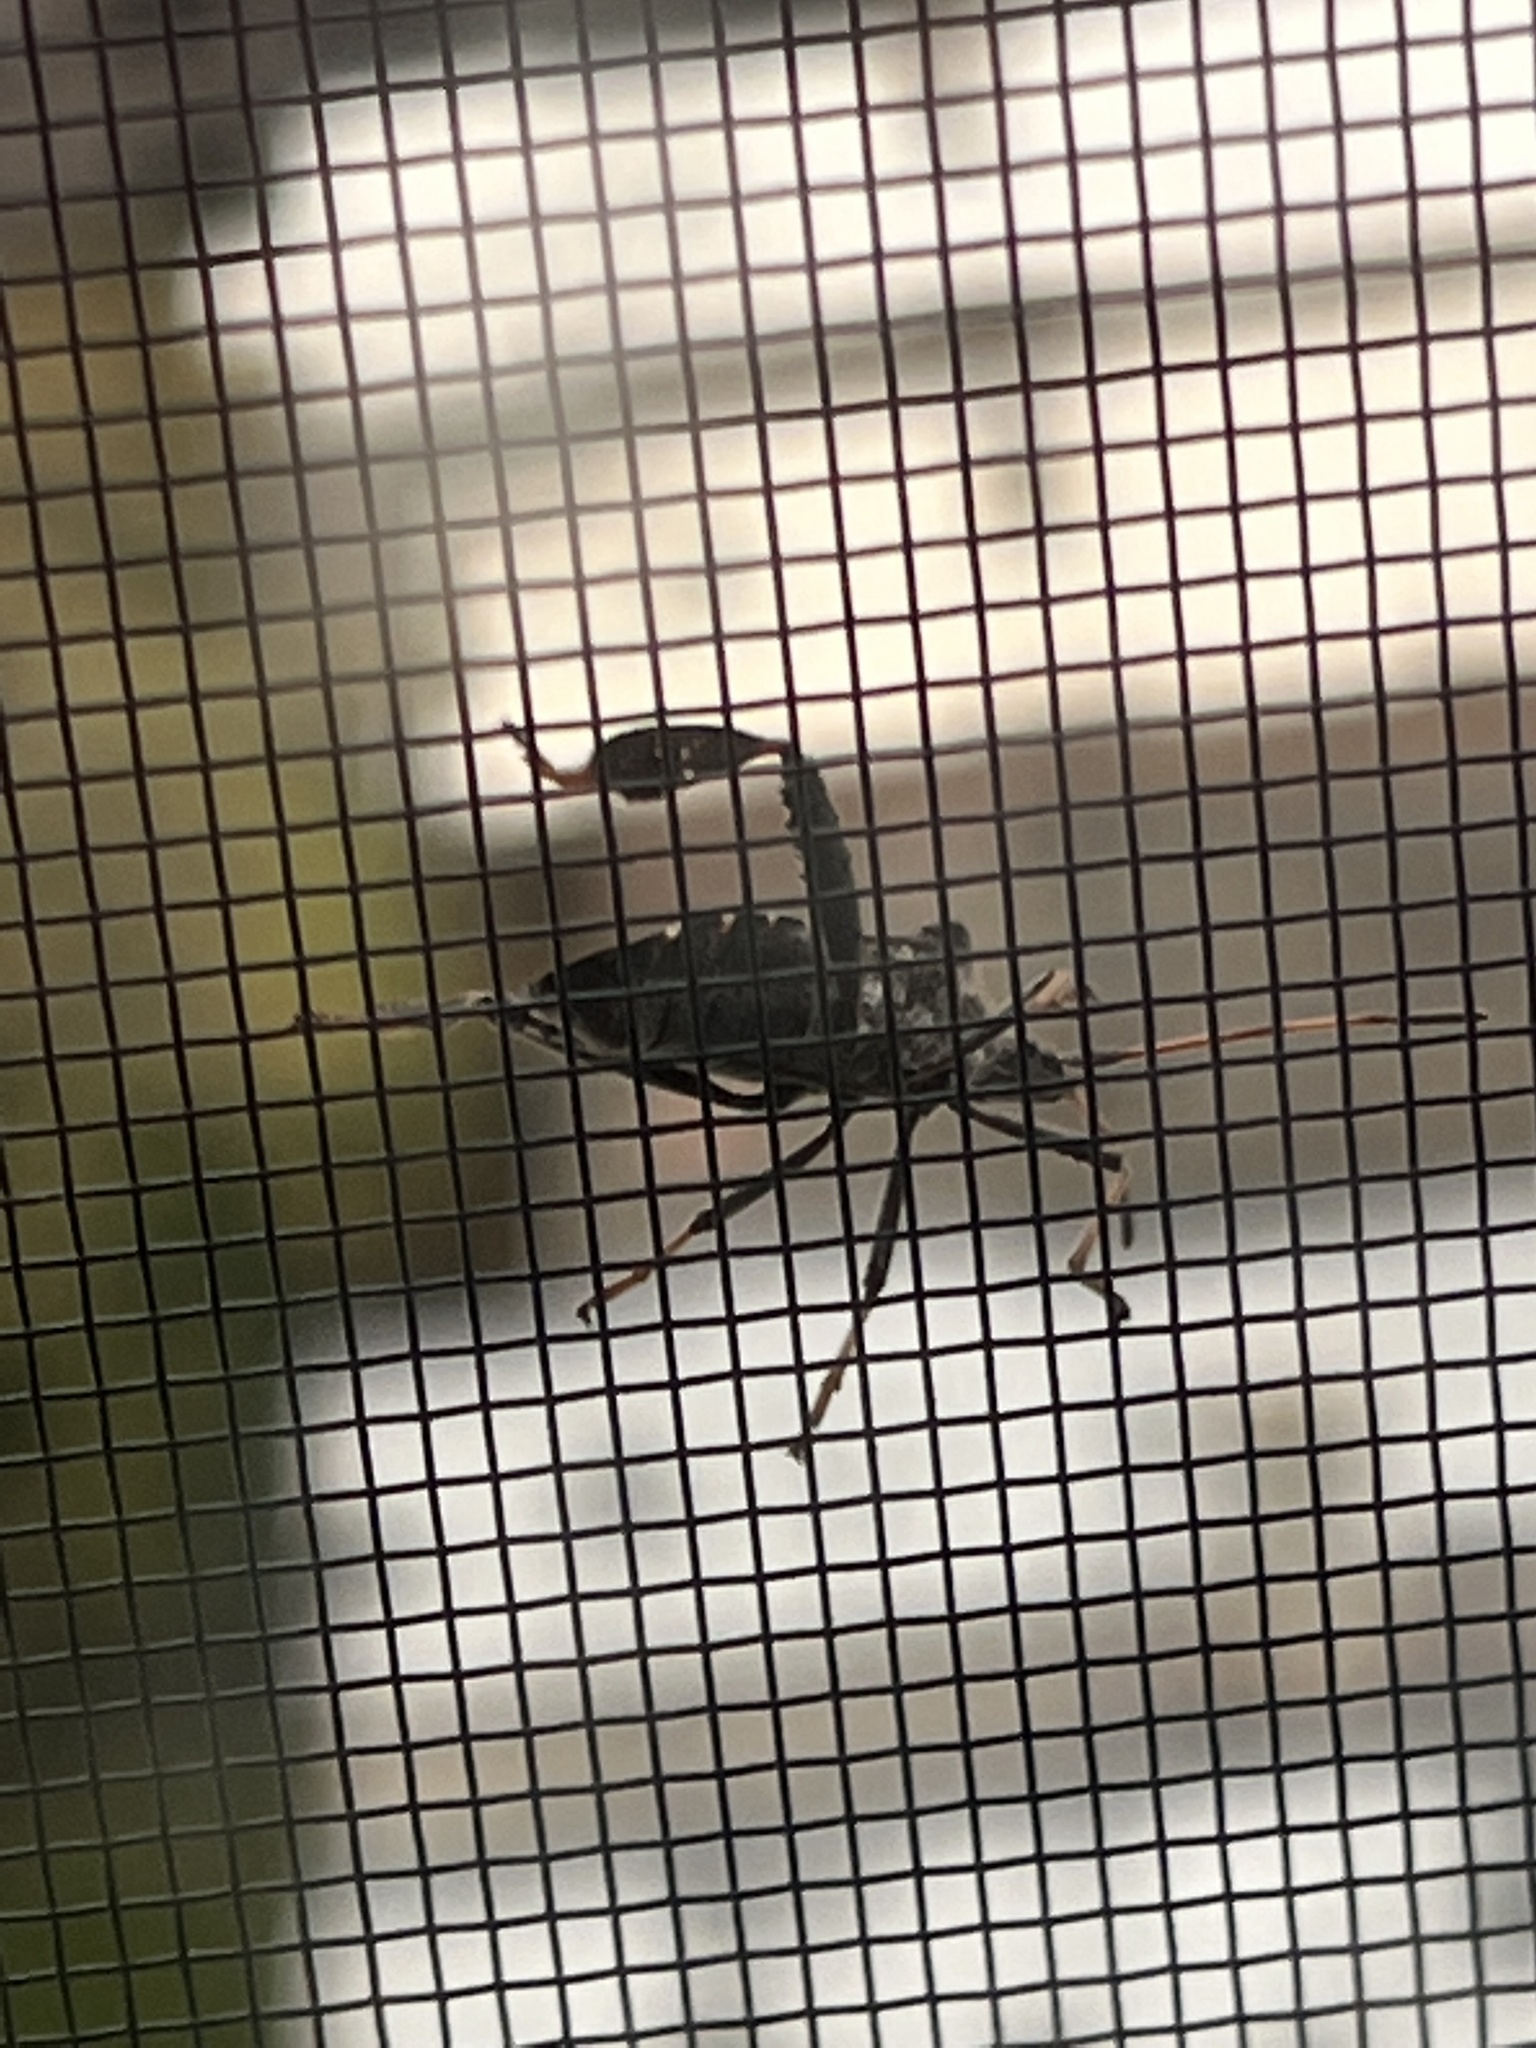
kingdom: Animalia
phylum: Arthropoda
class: Insecta
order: Hemiptera
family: Coreidae
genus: Leptoglossus
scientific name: Leptoglossus corculus
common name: Southern pine seed bug
